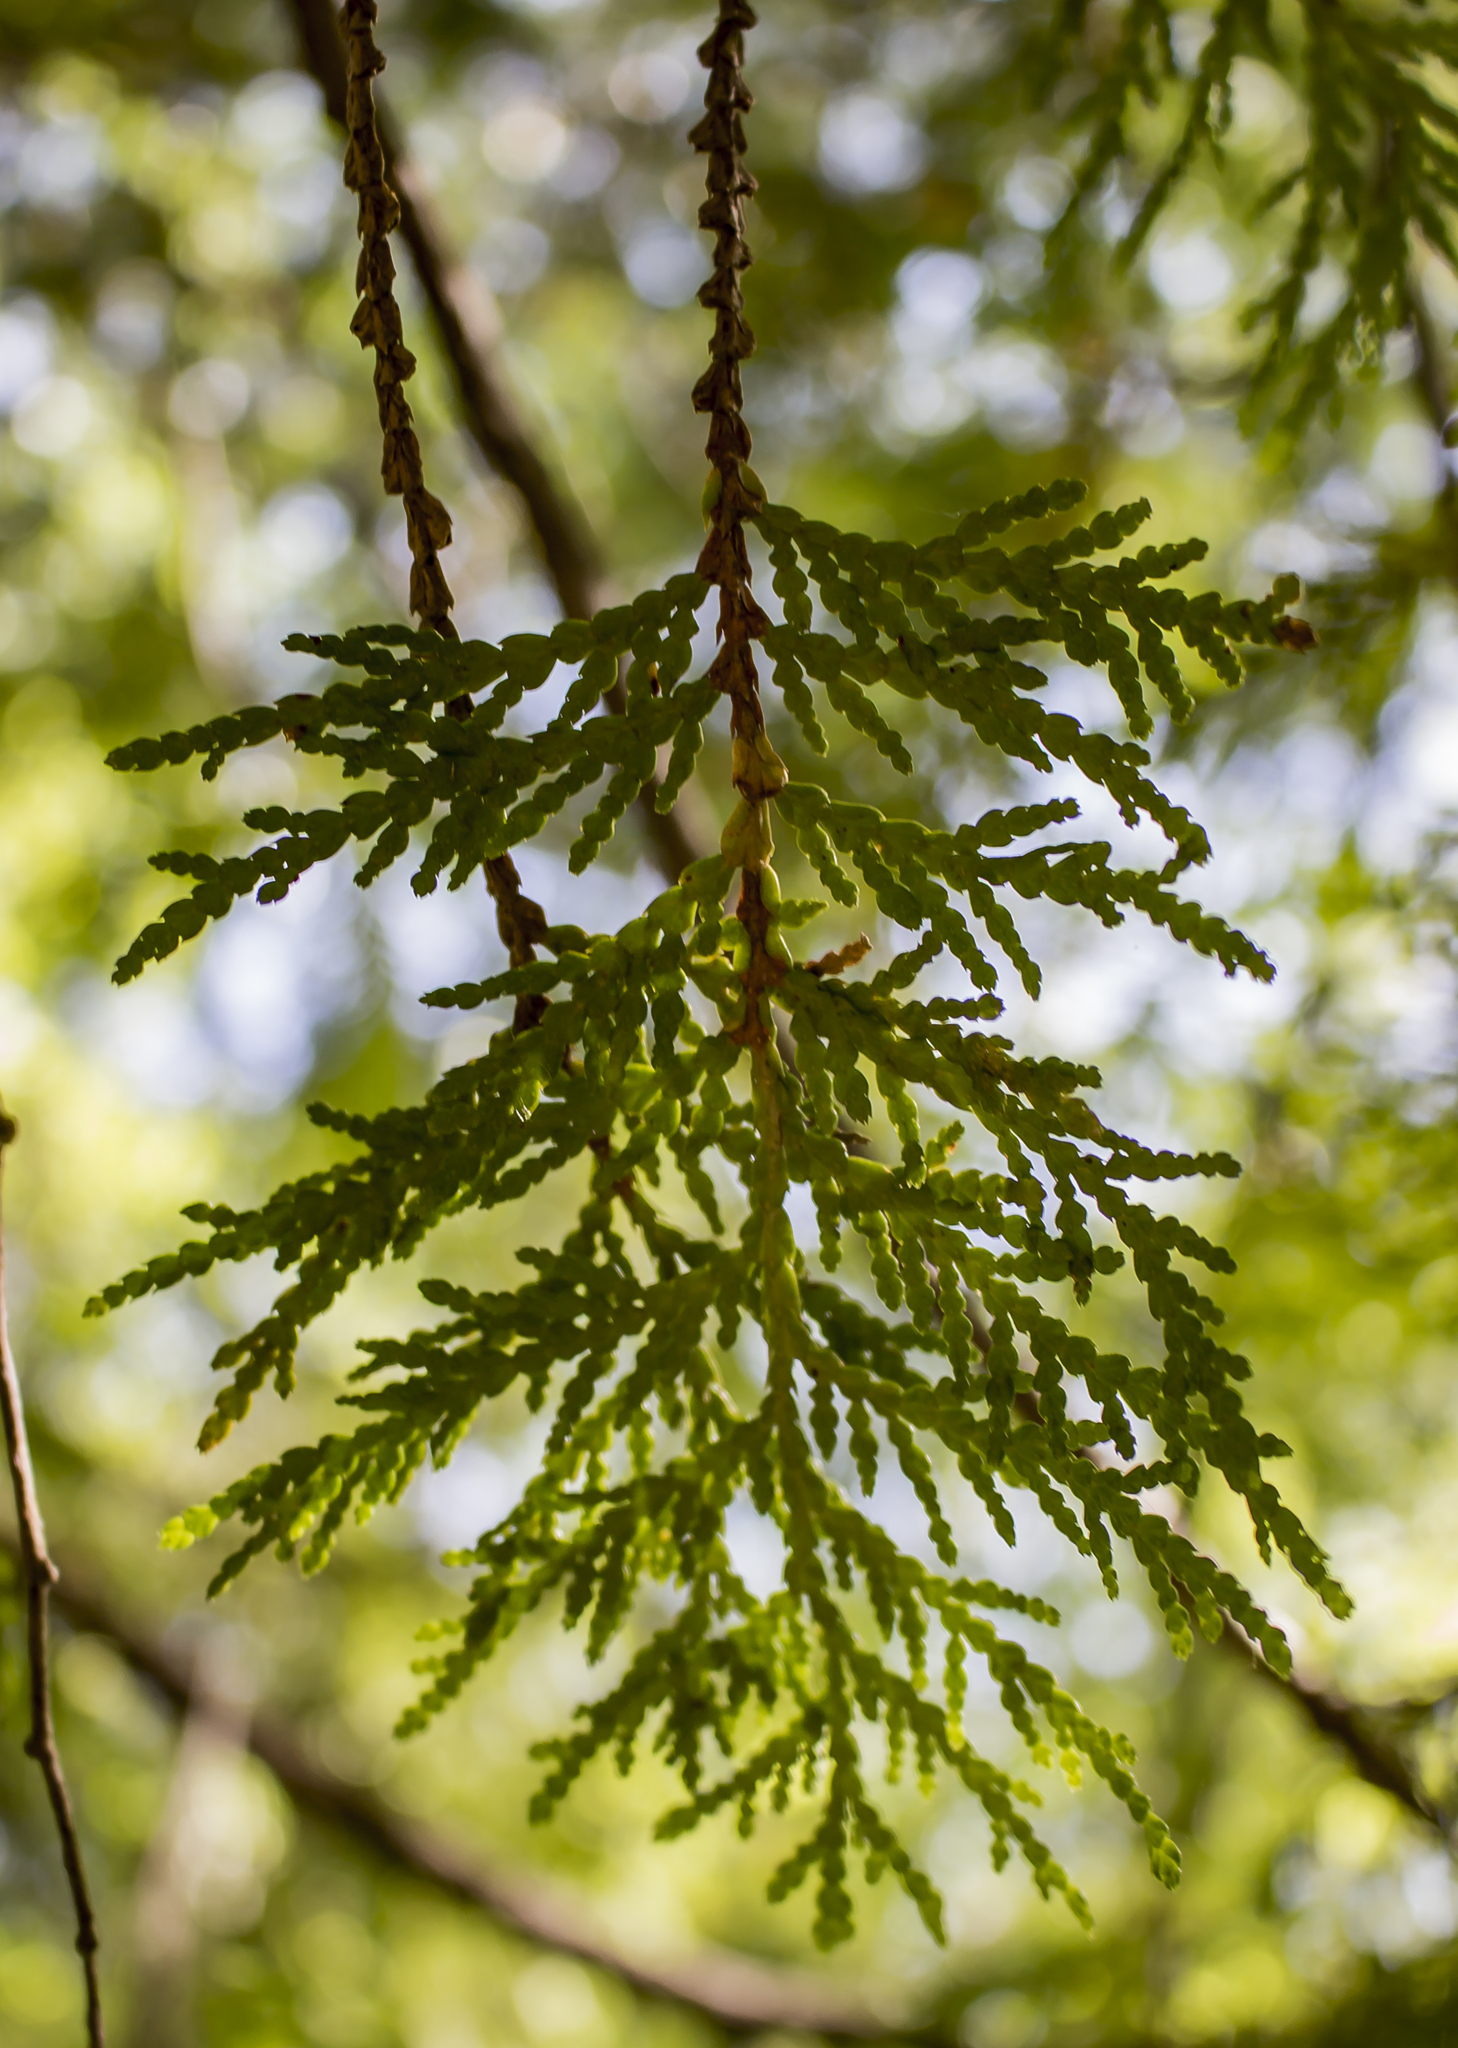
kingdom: Plantae
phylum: Tracheophyta
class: Pinopsida
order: Pinales
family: Cupressaceae
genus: Thuja
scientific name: Thuja occidentalis
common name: Northern white-cedar
